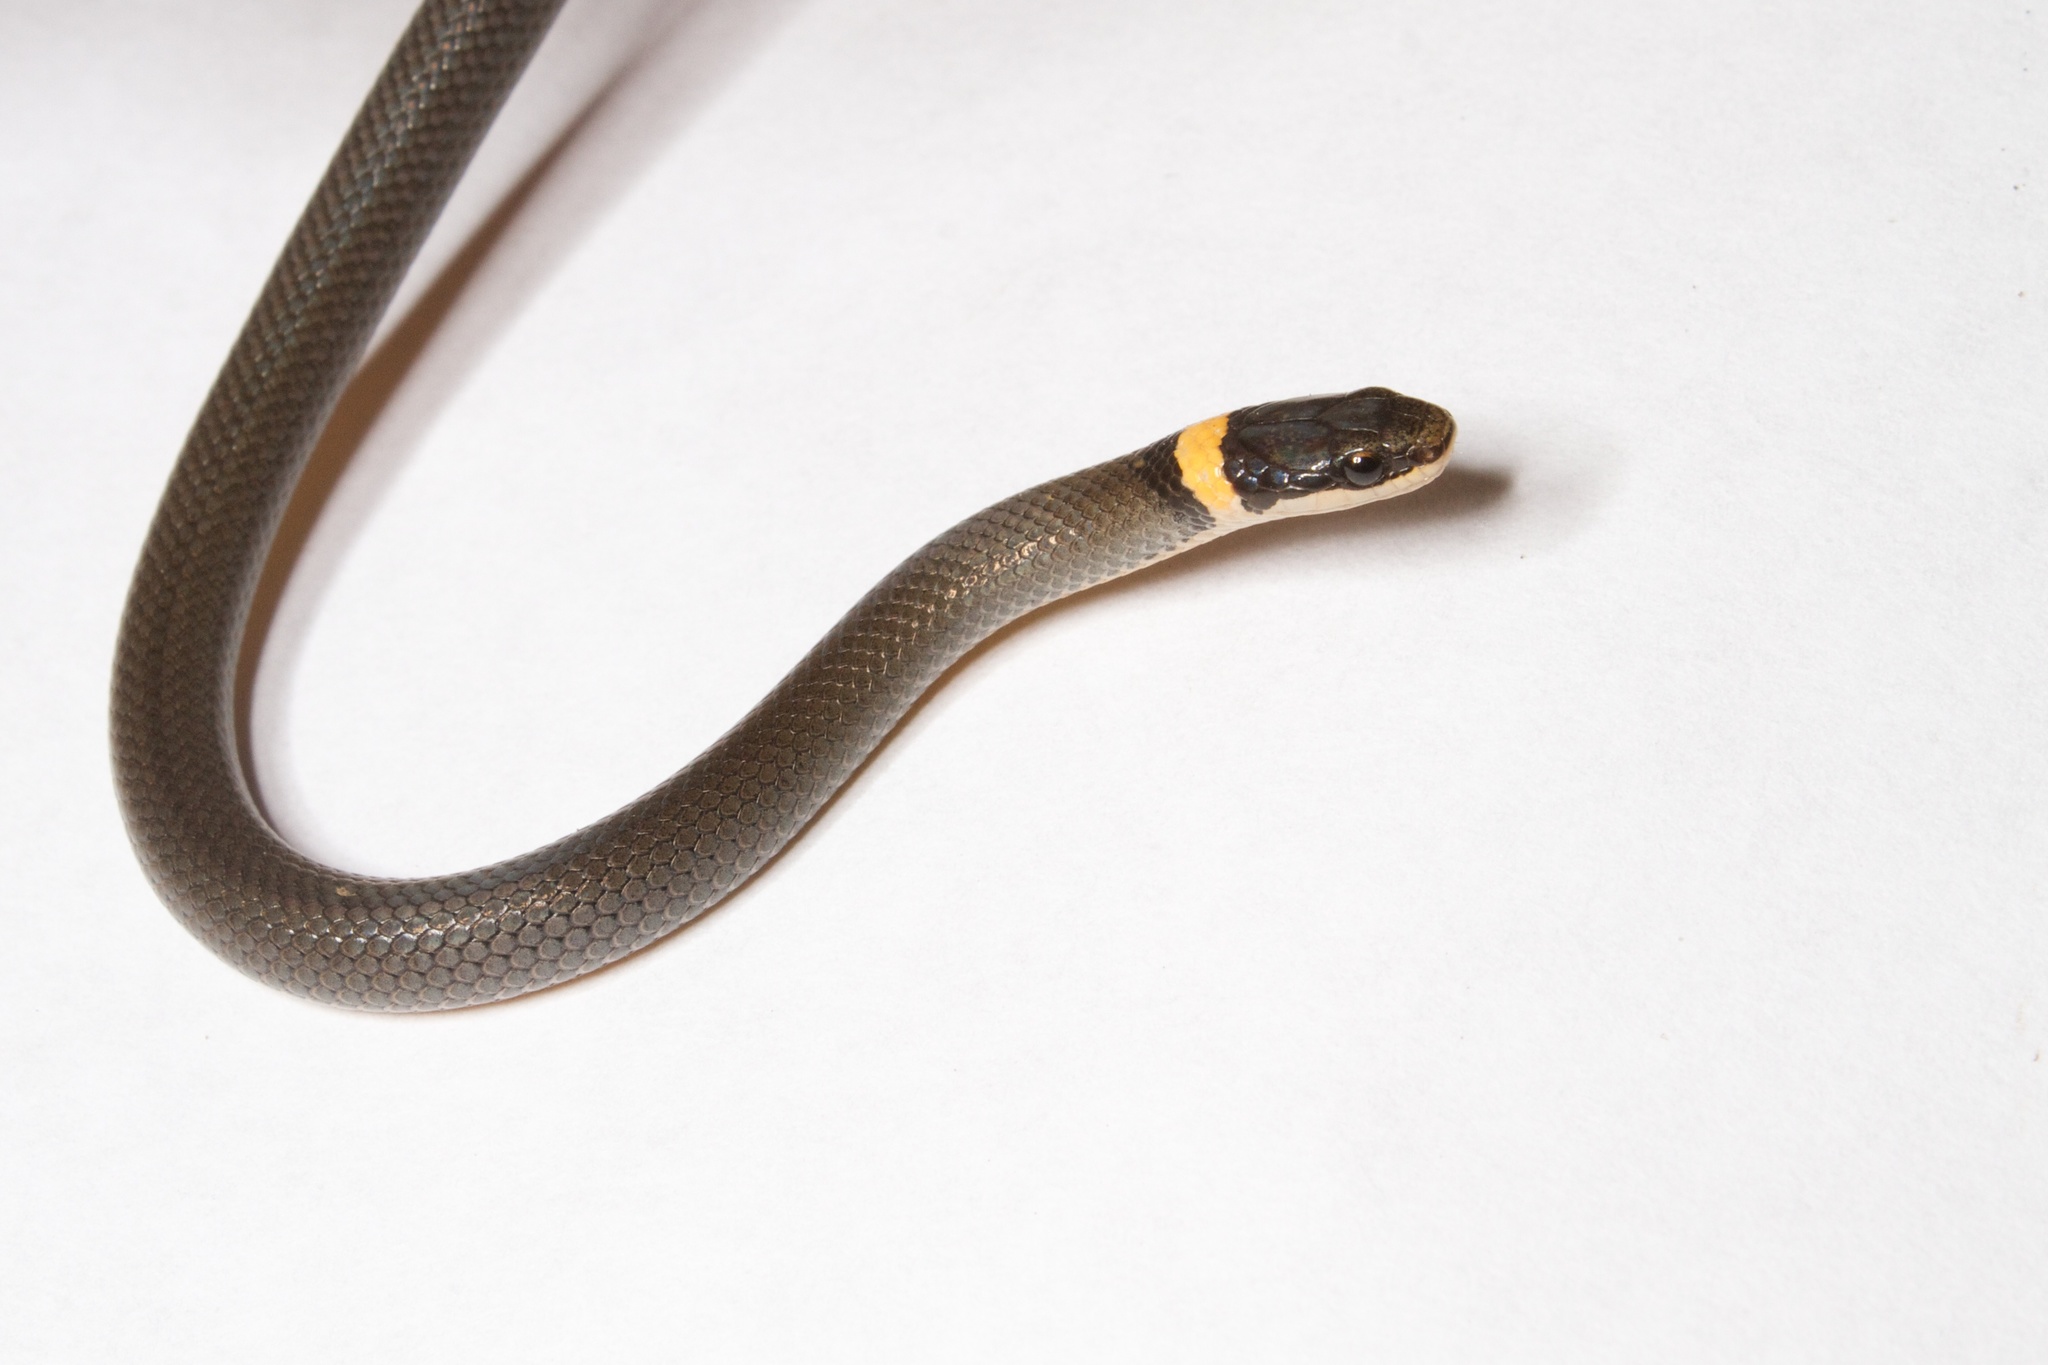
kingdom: Animalia
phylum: Chordata
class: Squamata
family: Colubridae
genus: Diadophis
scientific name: Diadophis punctatus
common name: Ringneck snake
